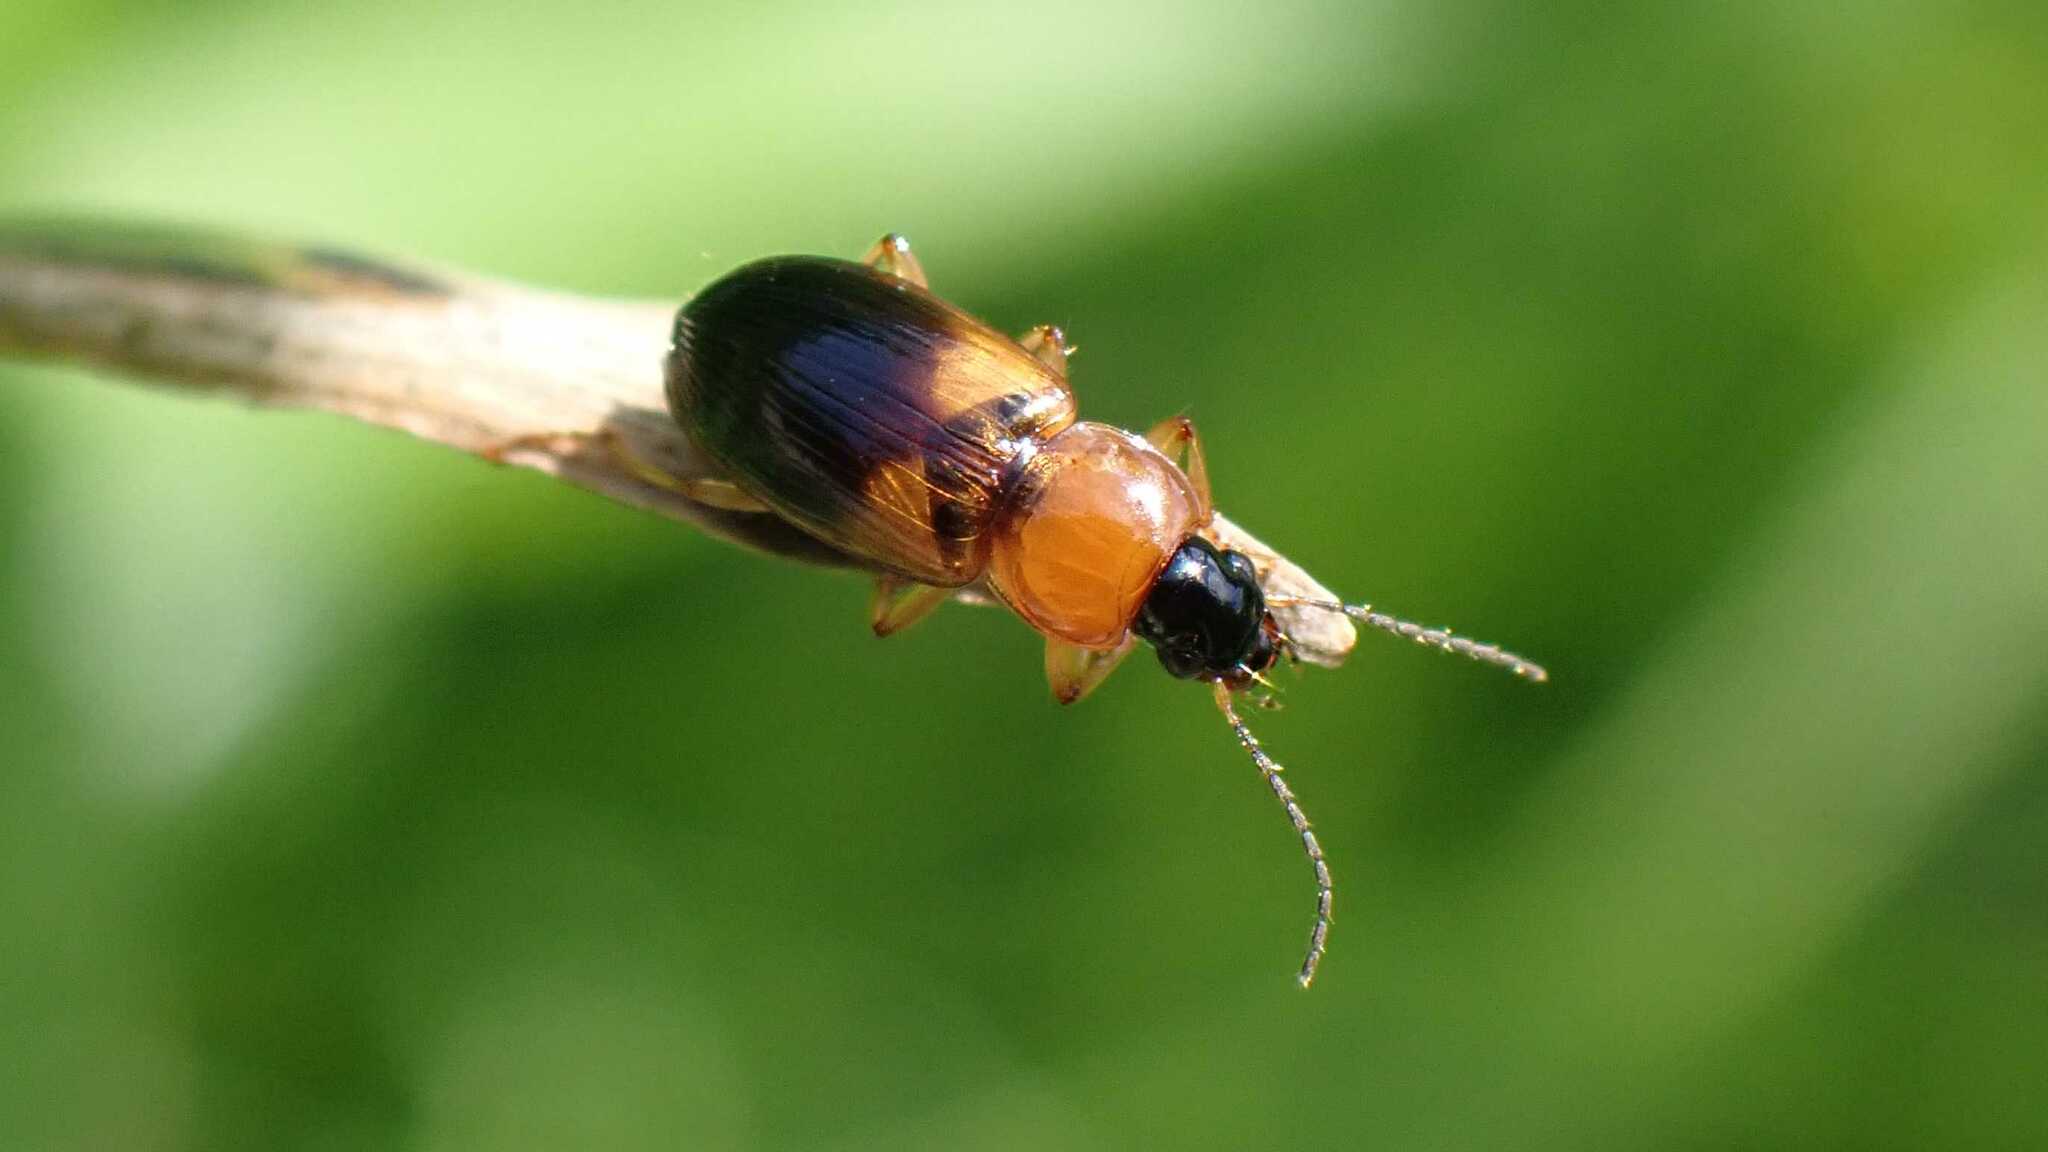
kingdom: Animalia
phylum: Arthropoda
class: Insecta
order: Coleoptera
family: Carabidae
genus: Stenolophus
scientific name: Stenolophus teutonus
